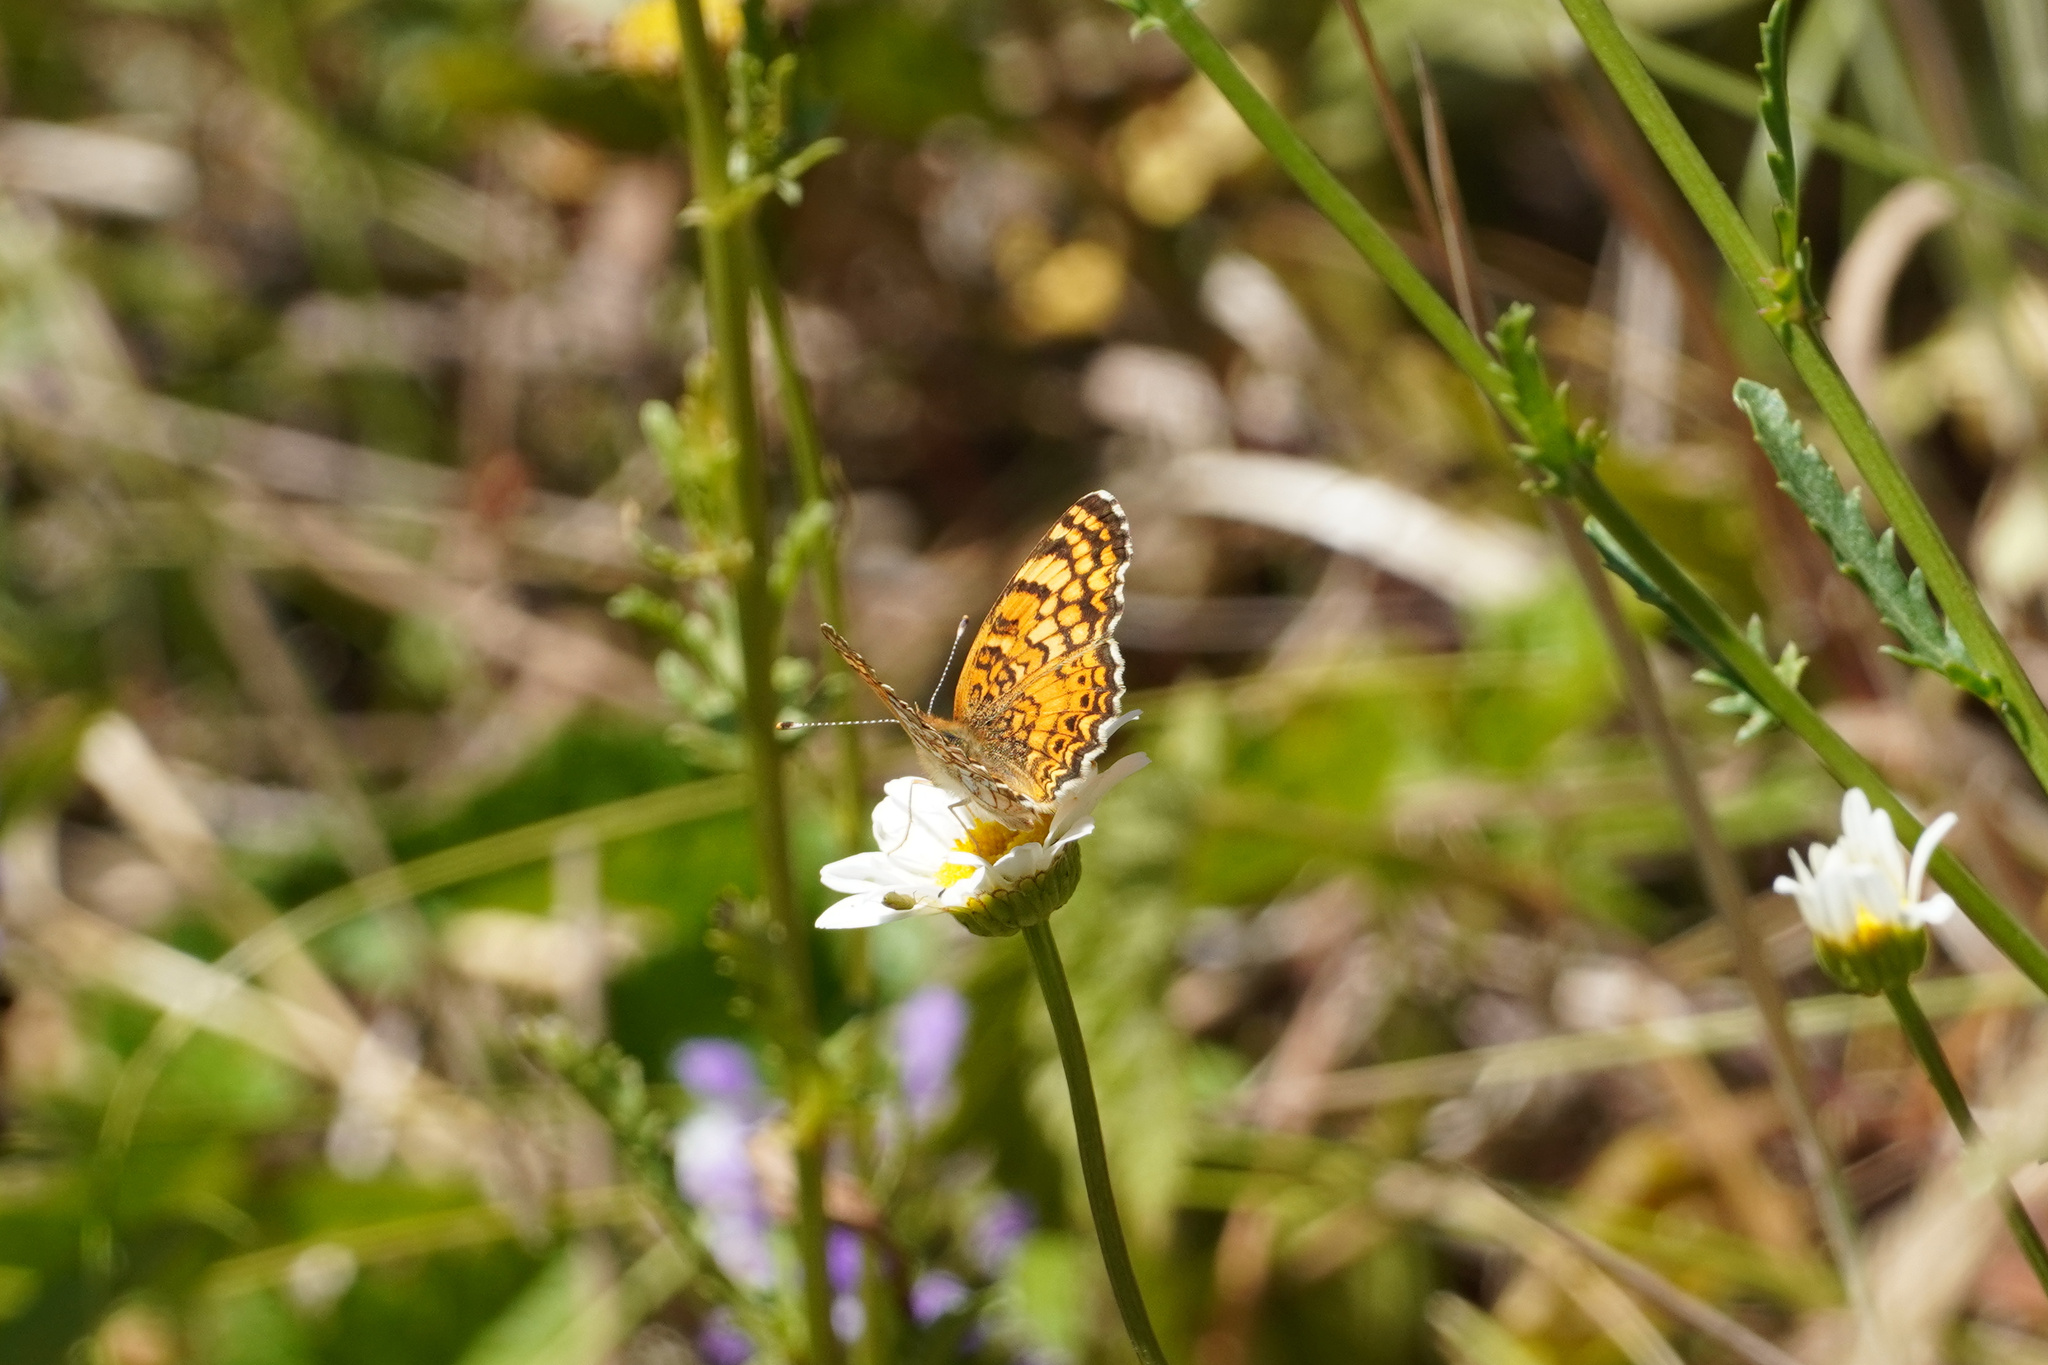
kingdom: Animalia
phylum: Arthropoda
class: Insecta
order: Lepidoptera
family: Nymphalidae
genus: Eresia
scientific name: Eresia aveyrona
